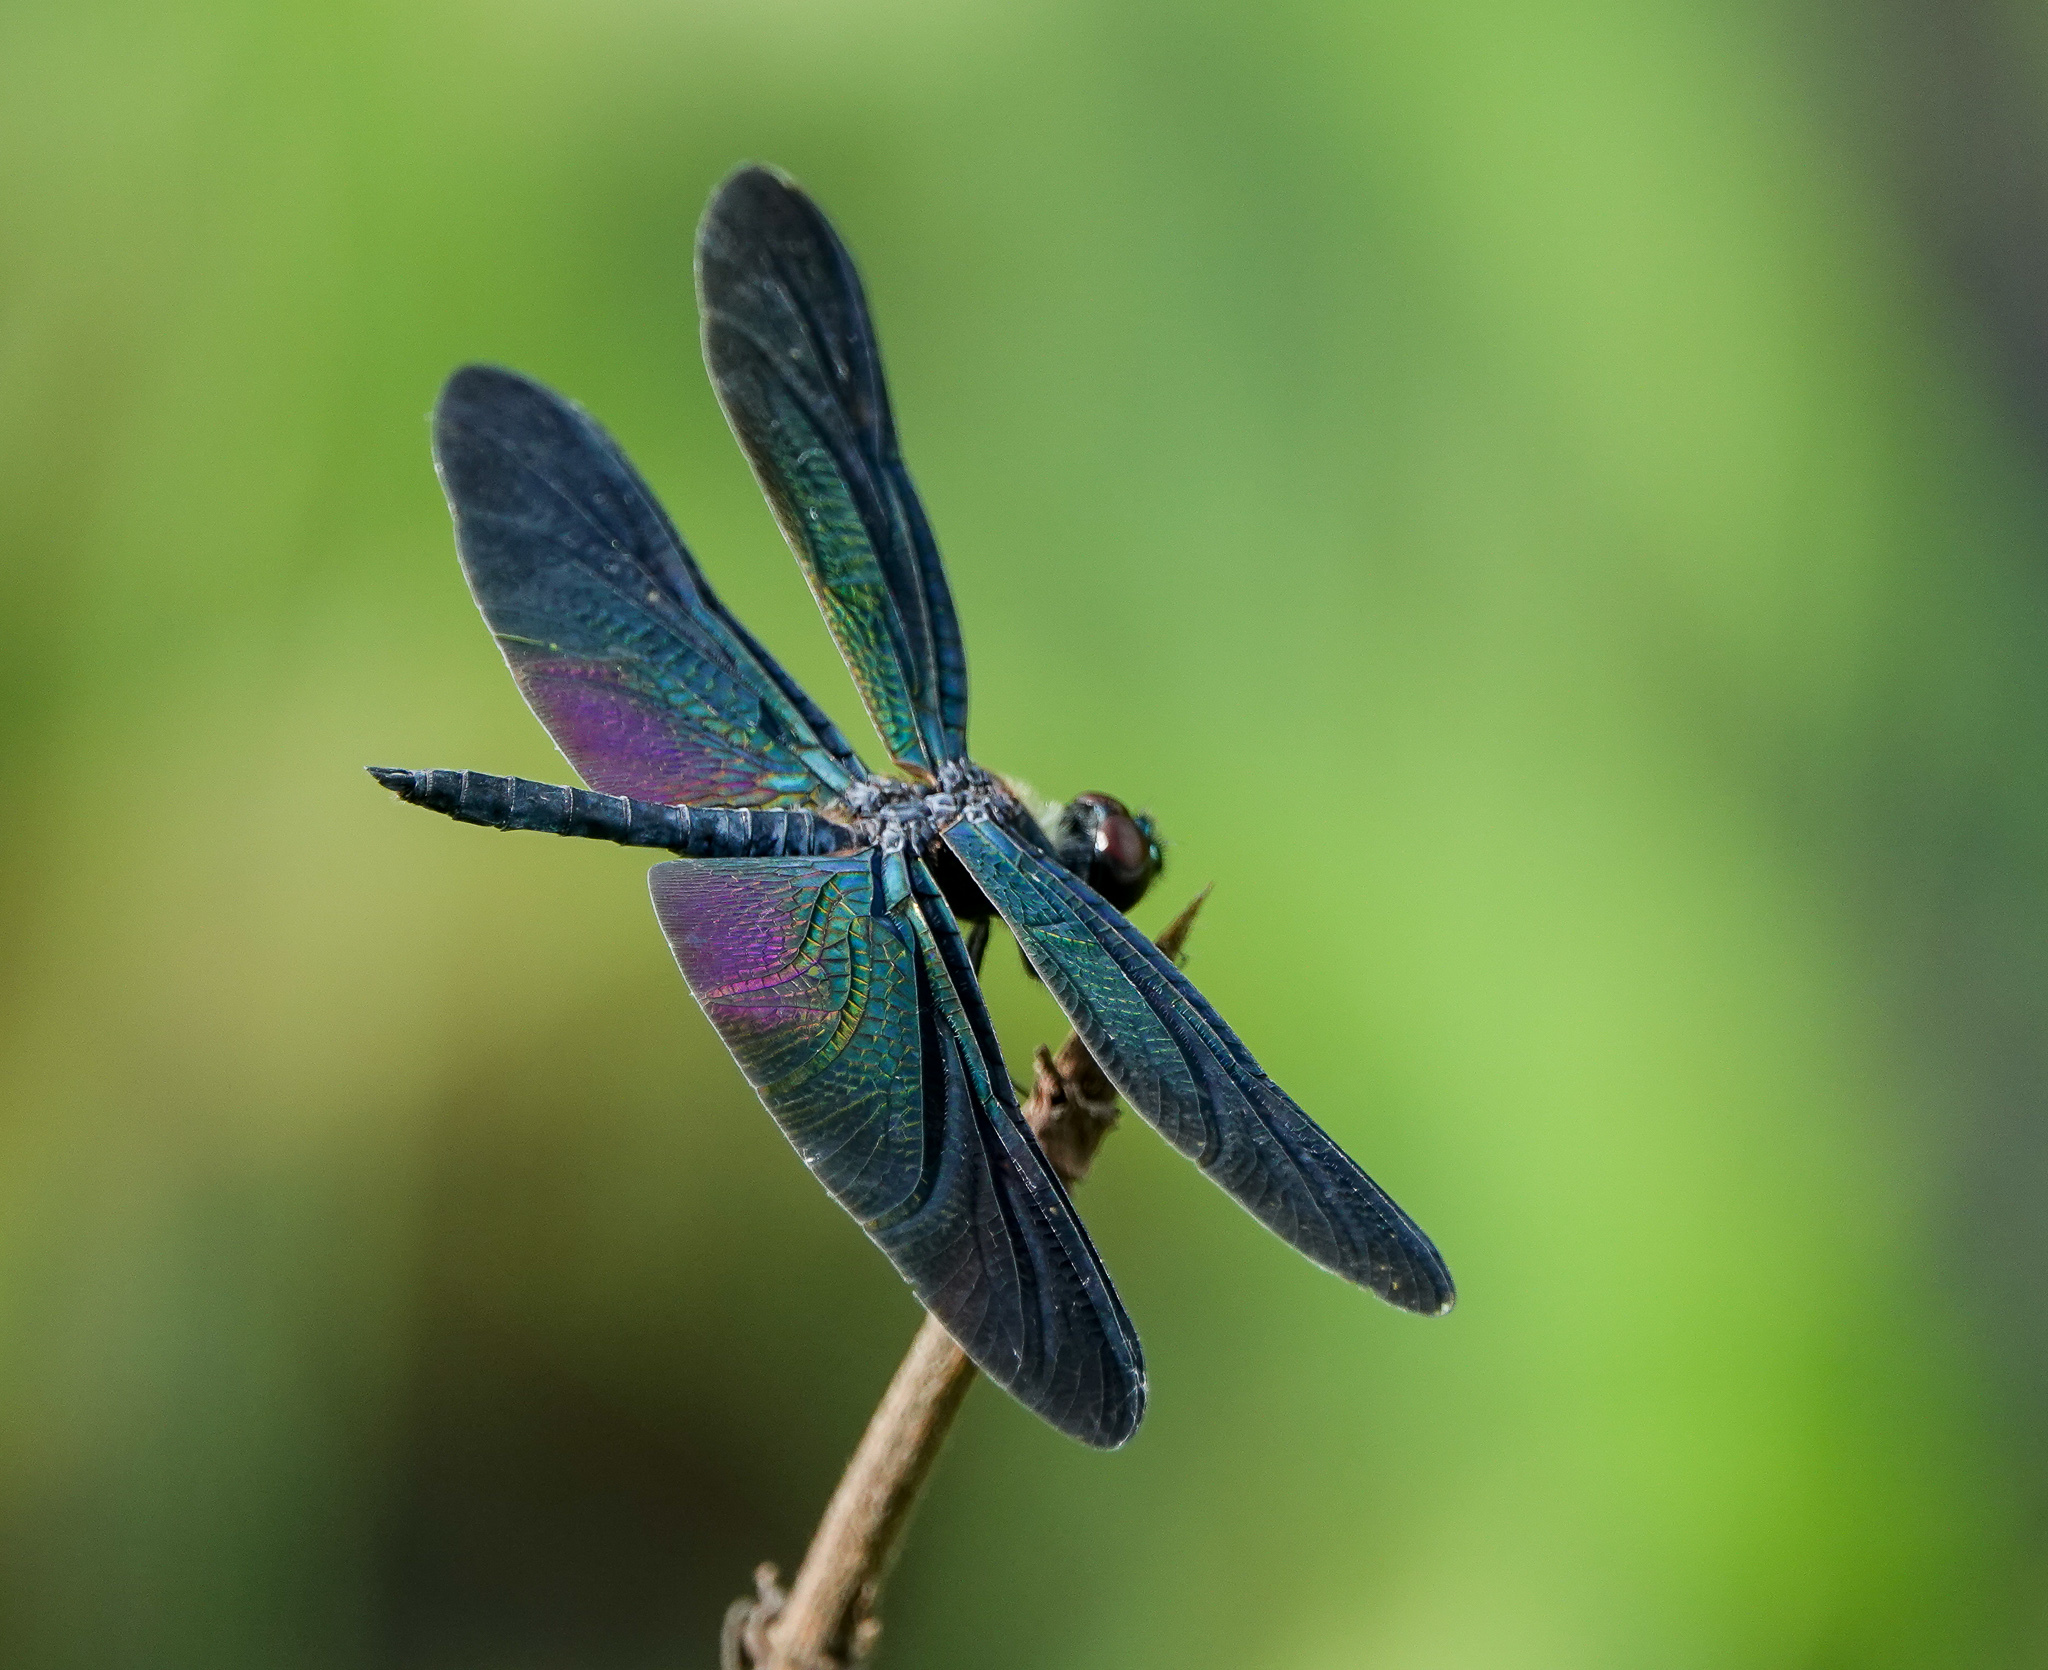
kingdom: Animalia
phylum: Arthropoda
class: Insecta
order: Odonata
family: Libellulidae
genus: Rhyothemis
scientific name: Rhyothemis plutonia
